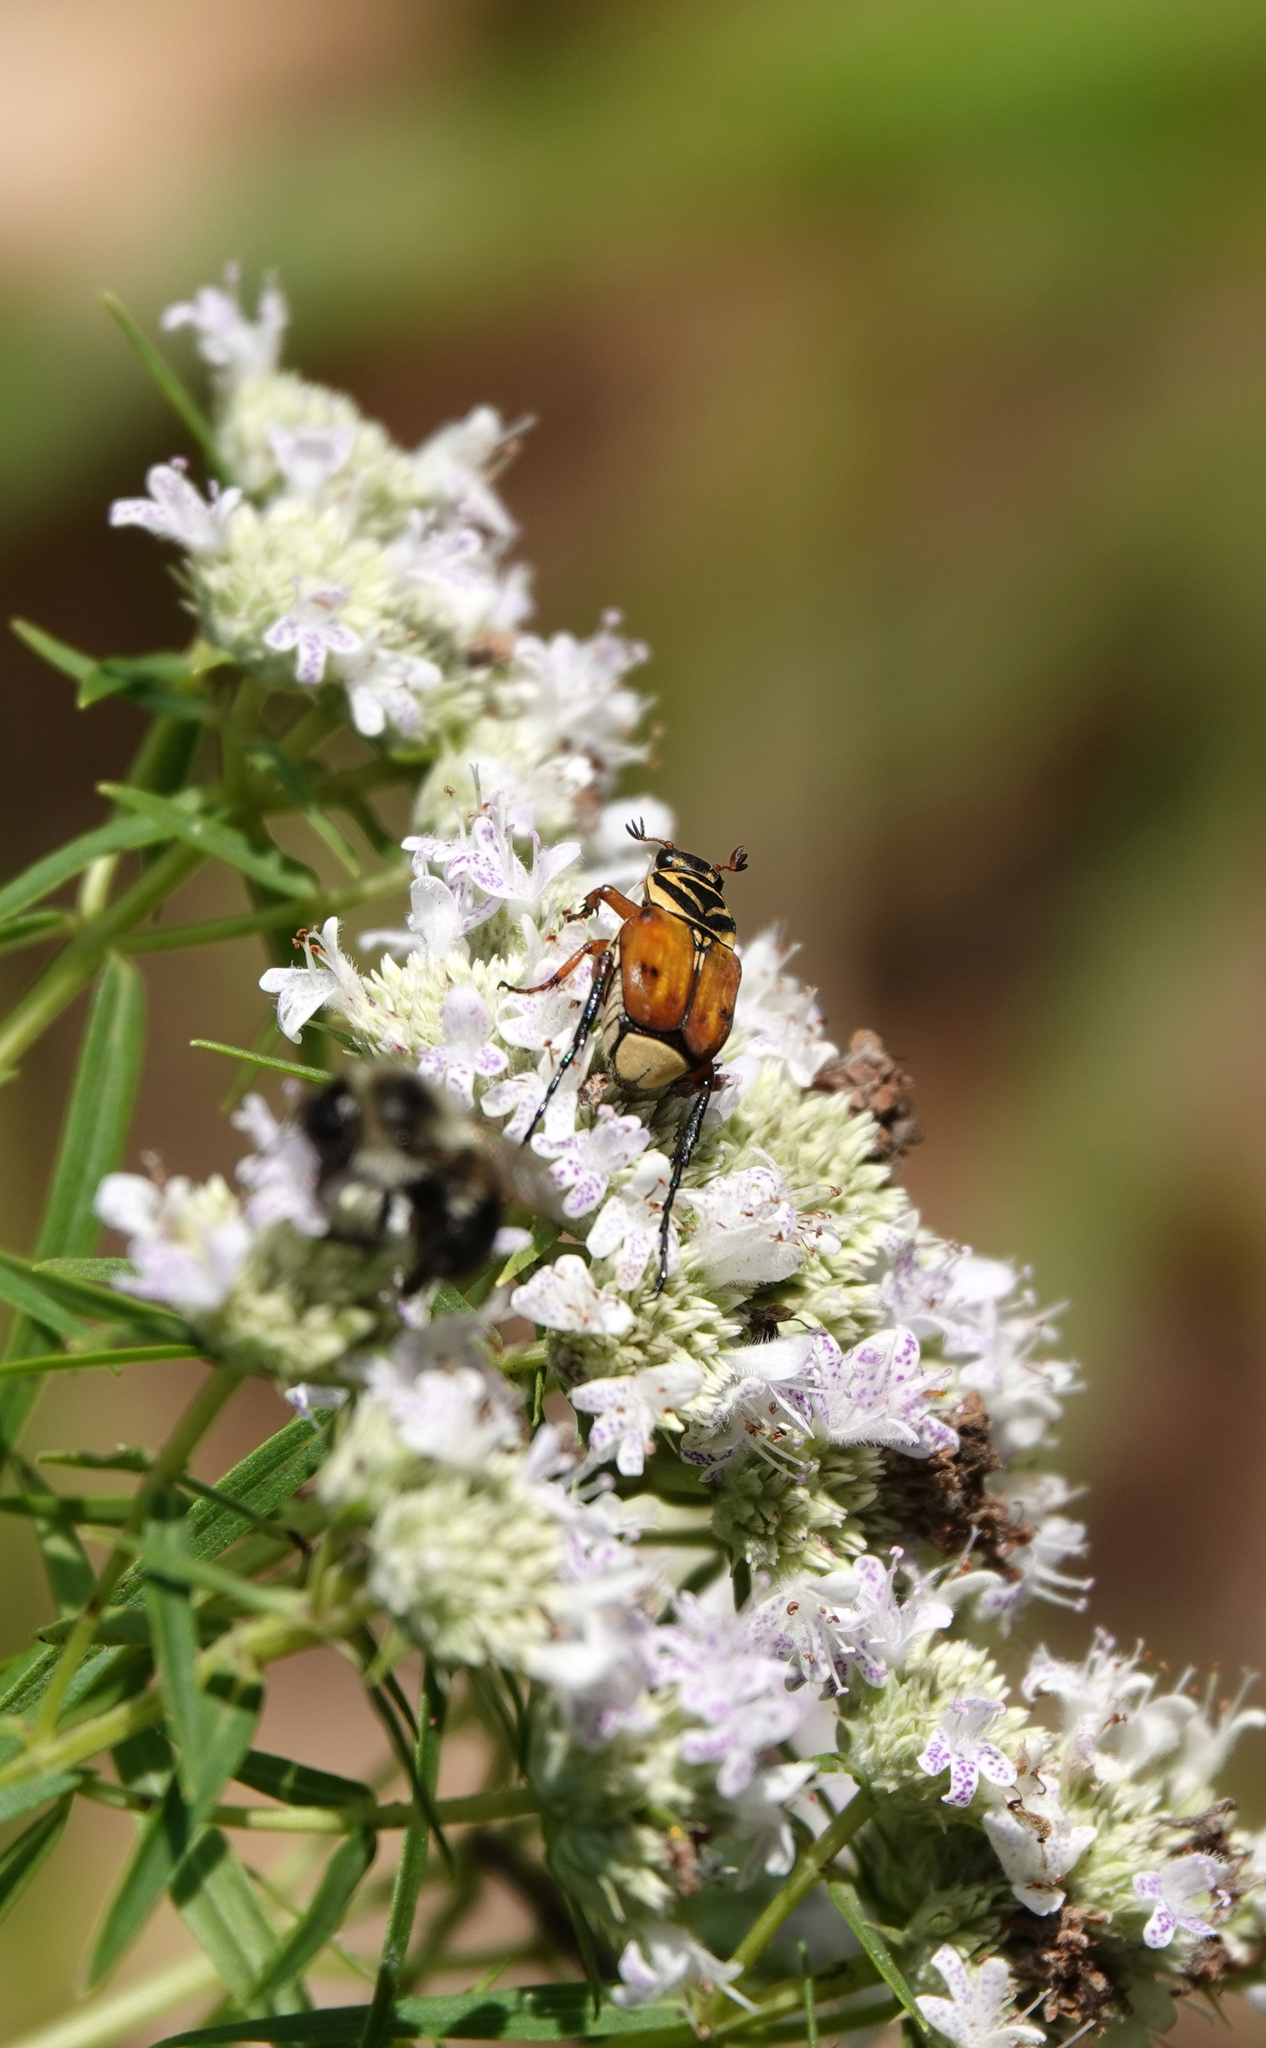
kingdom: Animalia
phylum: Arthropoda
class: Insecta
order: Coleoptera
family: Scarabaeidae
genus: Trigonopeltastes
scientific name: Trigonopeltastes delta
